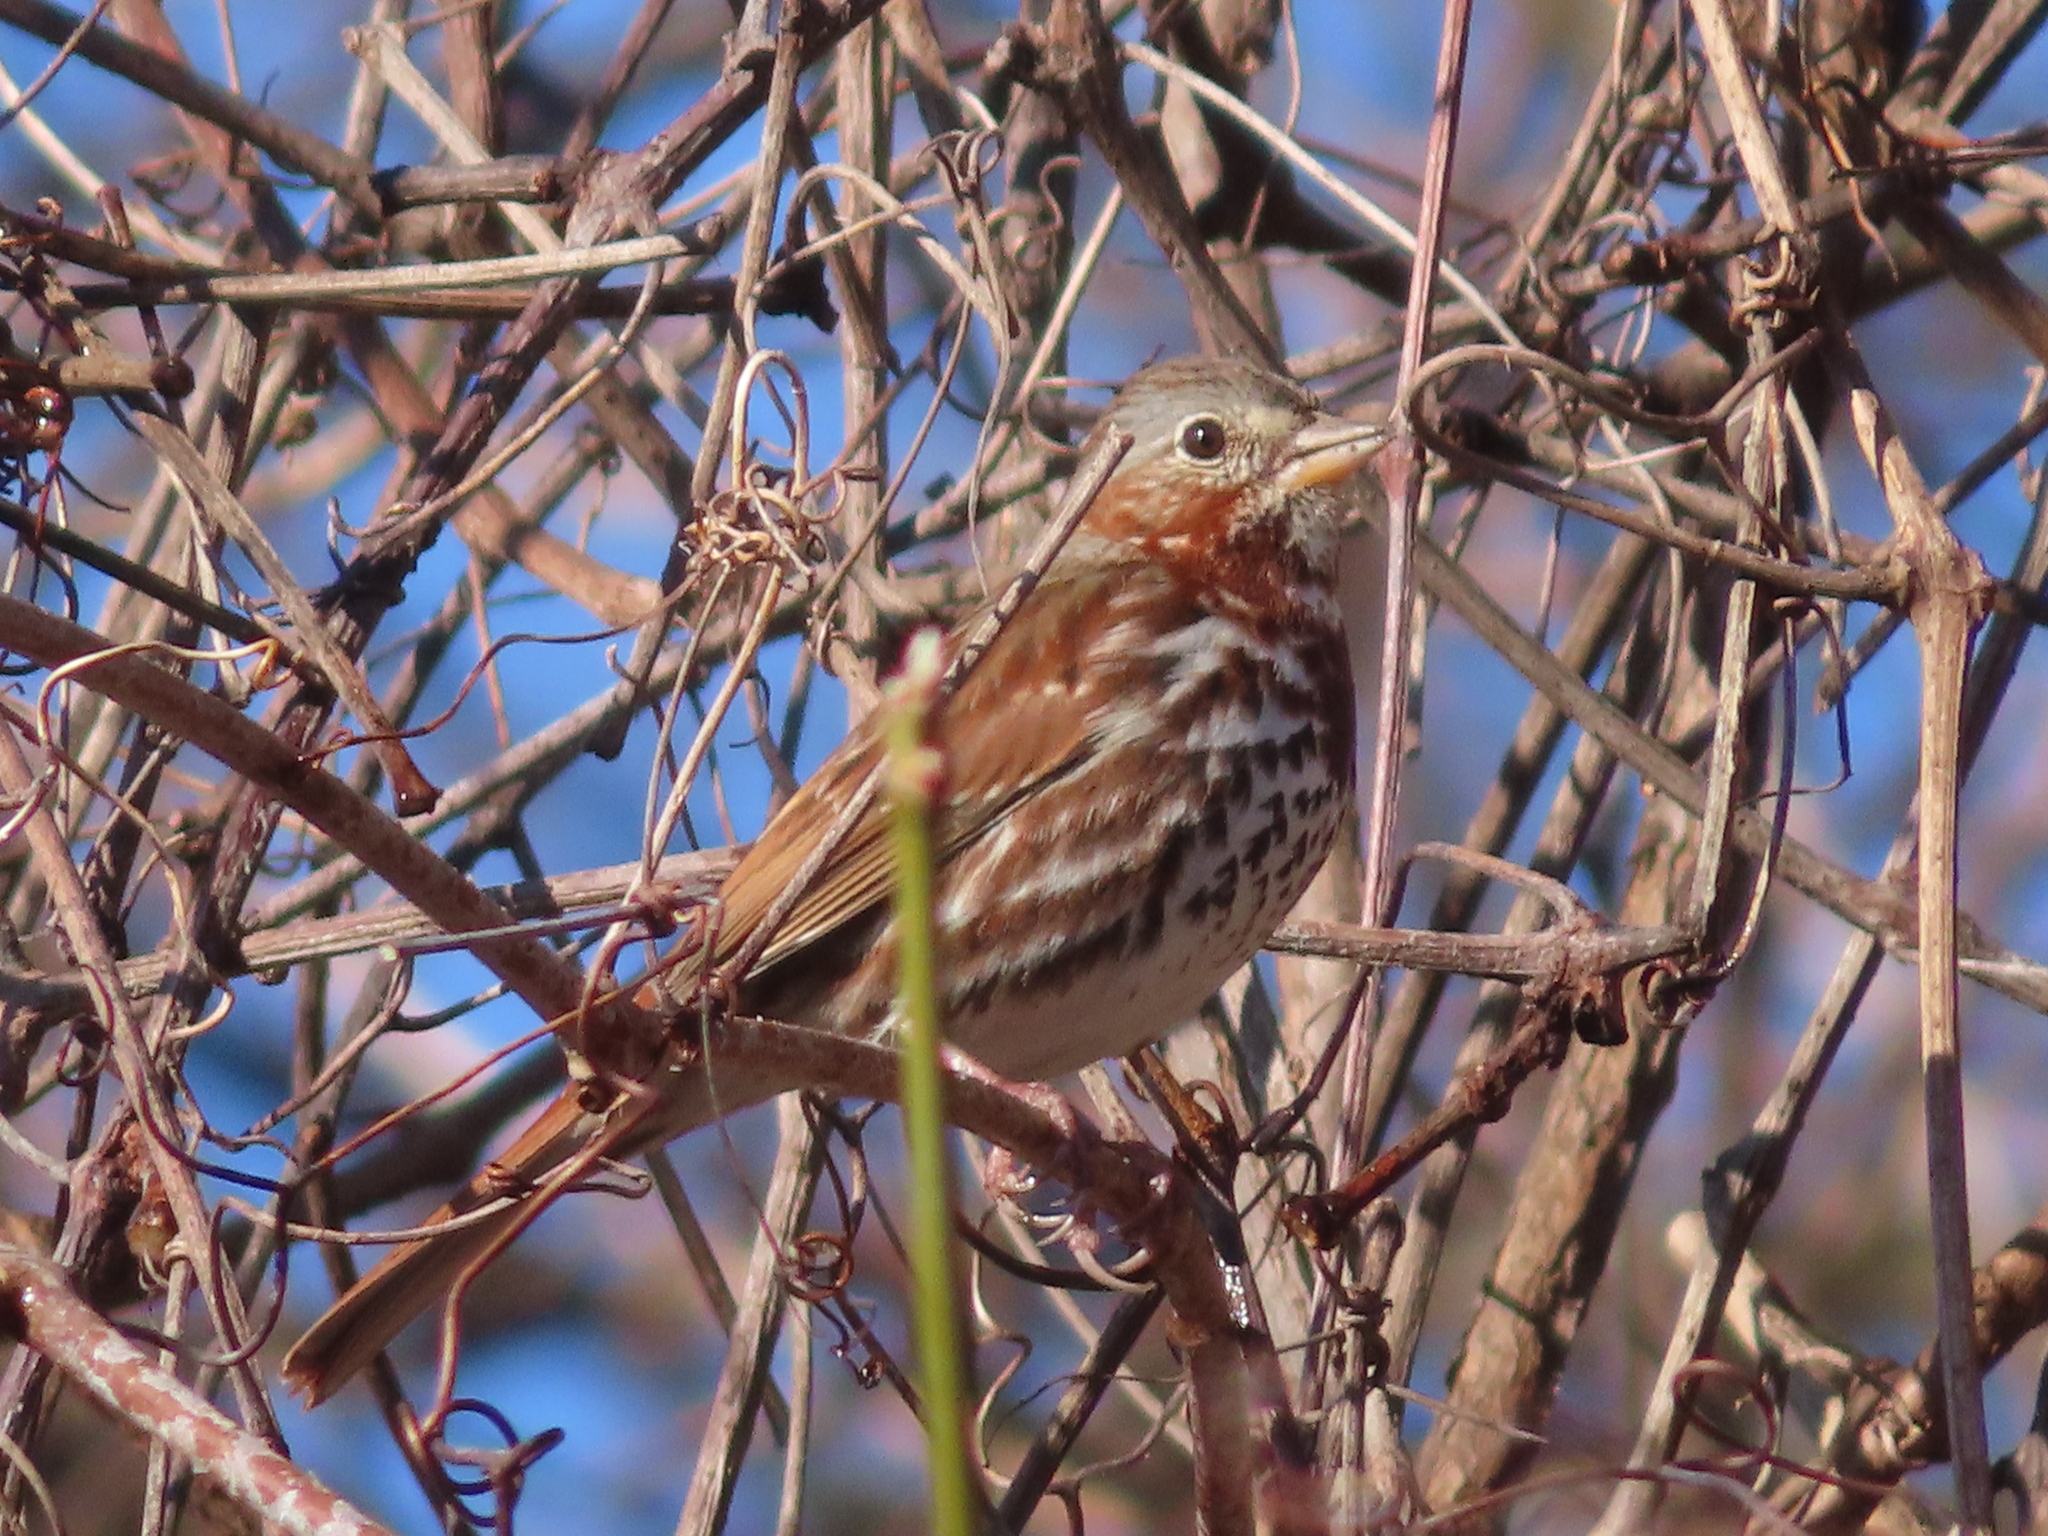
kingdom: Animalia
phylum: Chordata
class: Aves
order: Passeriformes
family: Passerellidae
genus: Passerella
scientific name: Passerella iliaca
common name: Fox sparrow
